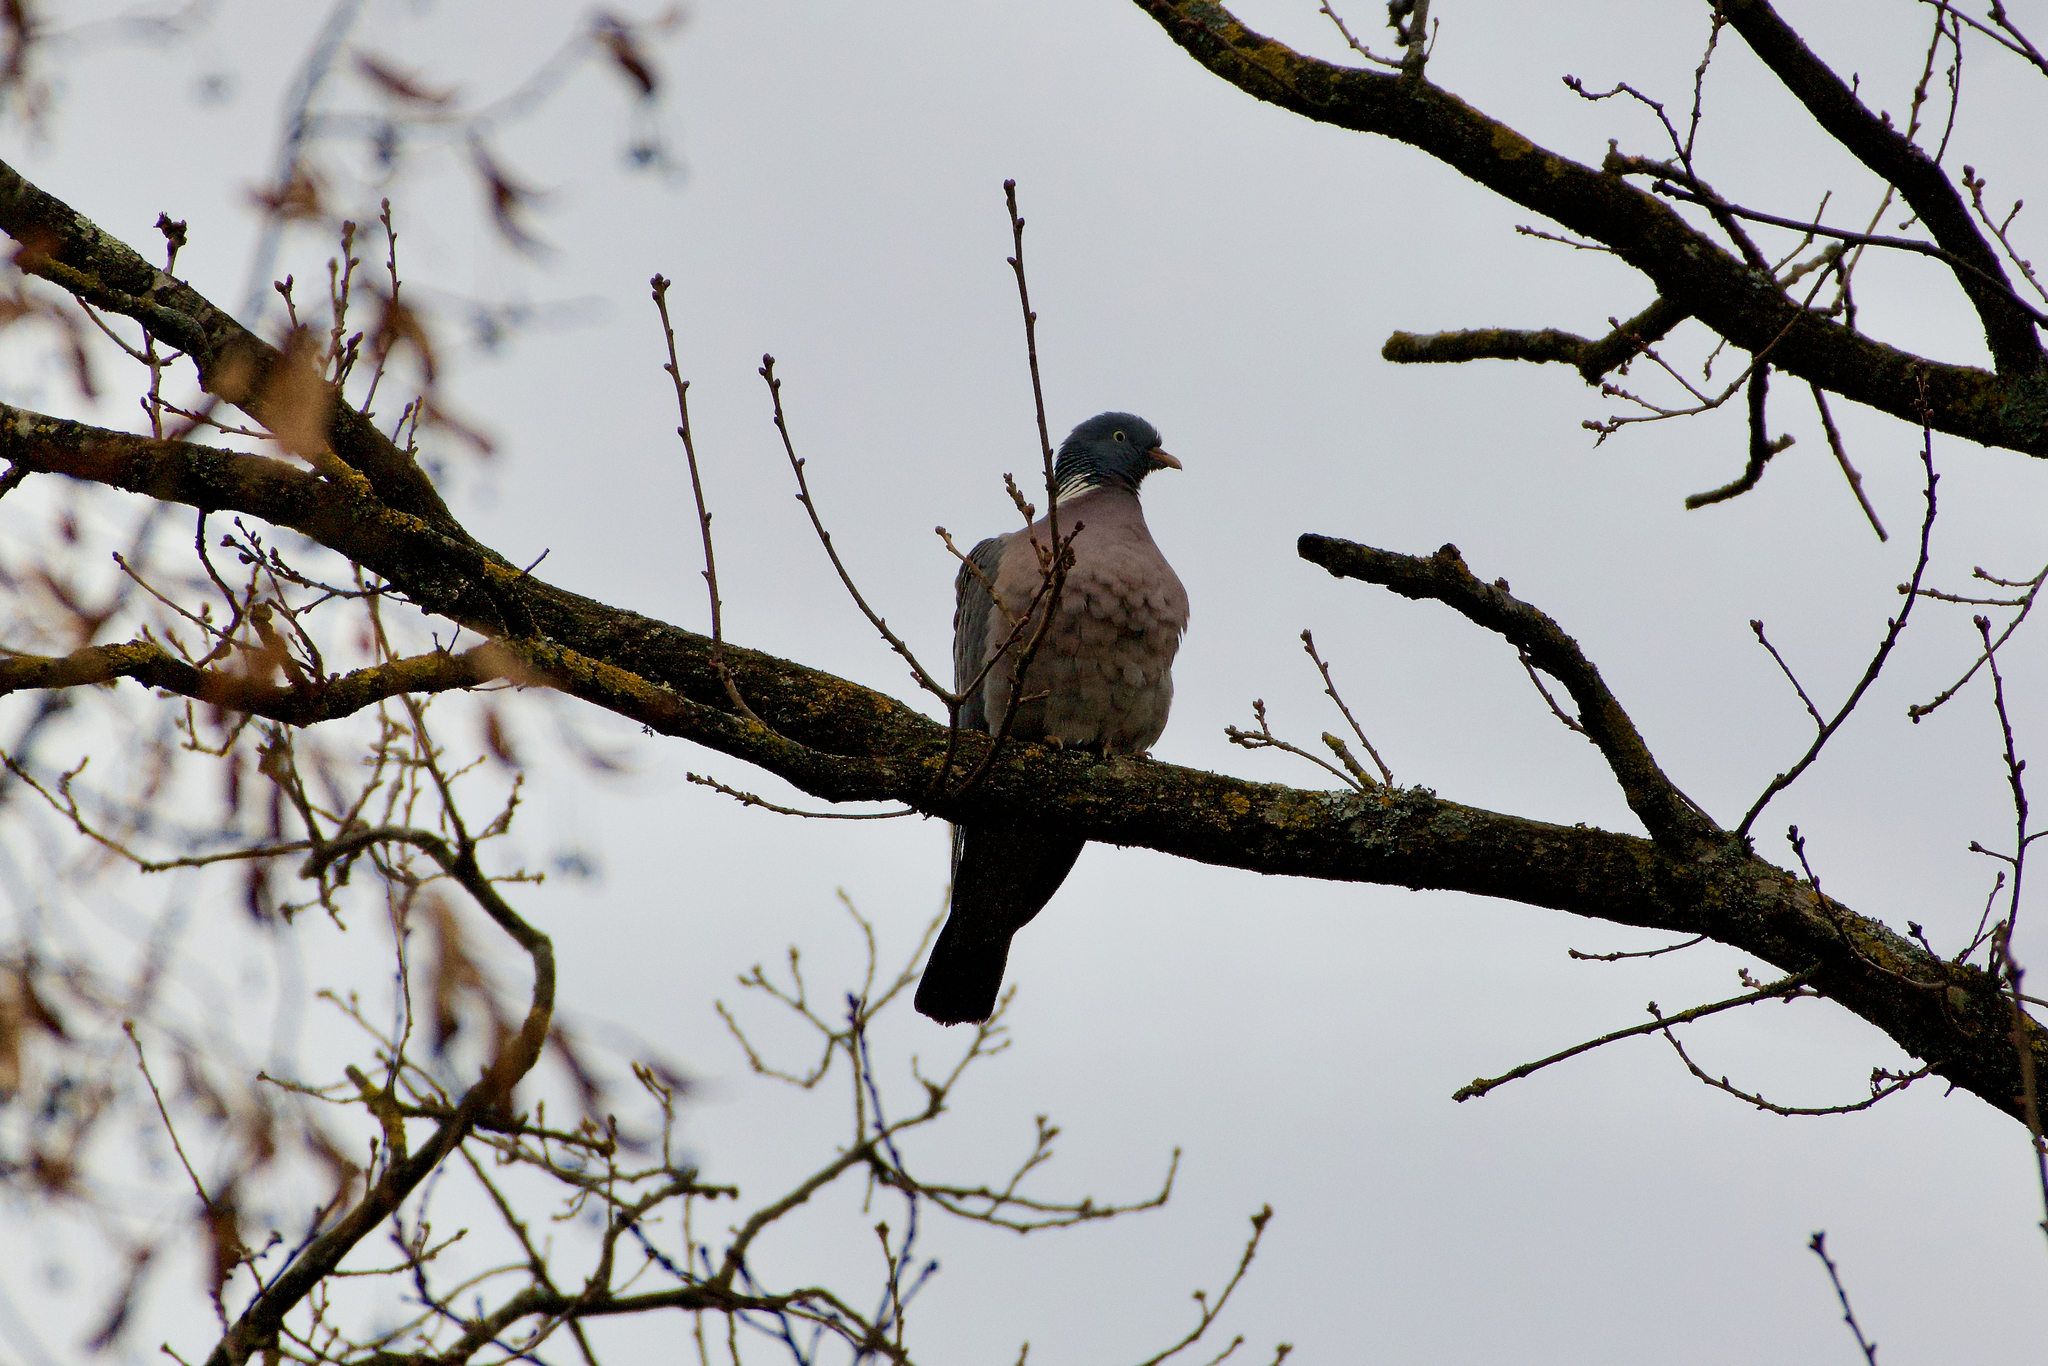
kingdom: Animalia
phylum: Chordata
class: Aves
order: Columbiformes
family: Columbidae
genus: Columba
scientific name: Columba palumbus
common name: Common wood pigeon
